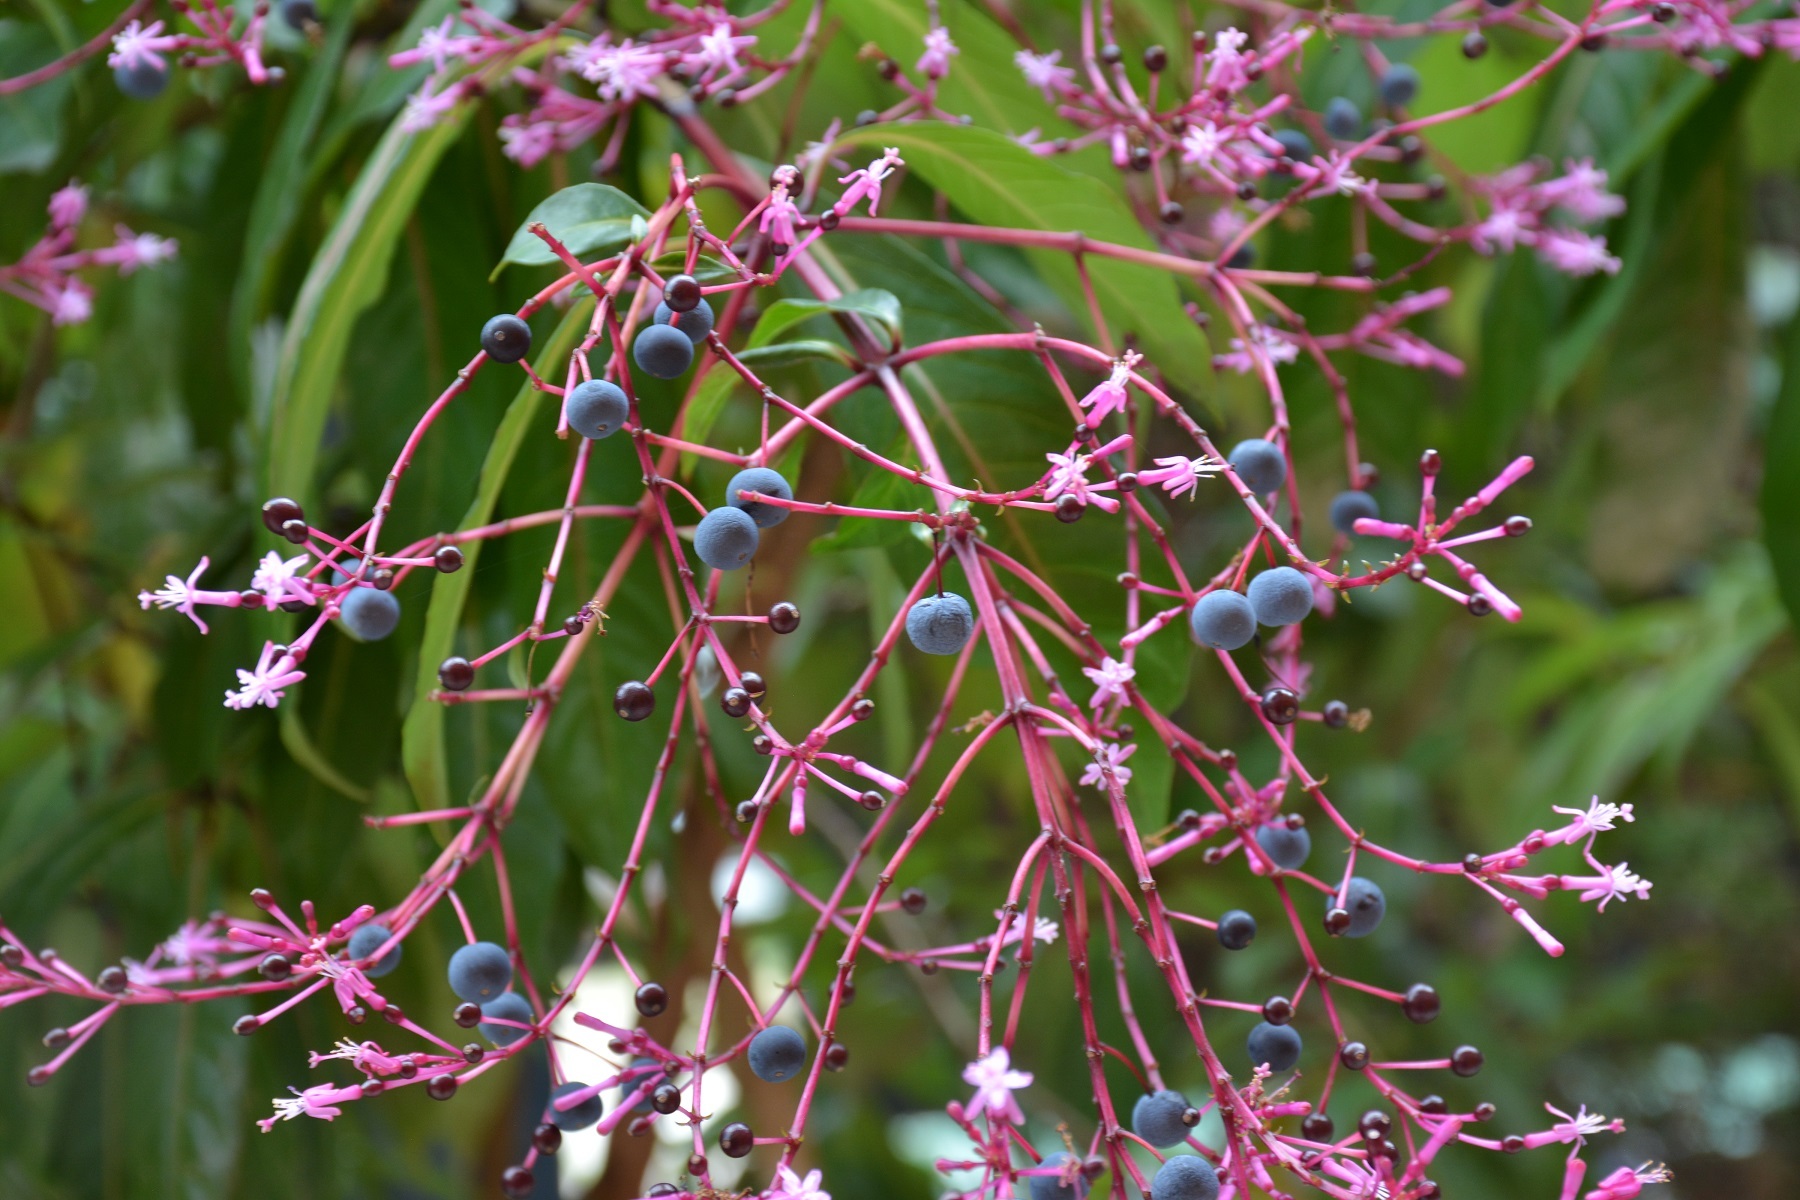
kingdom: Plantae
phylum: Tracheophyta
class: Magnoliopsida
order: Myrtales
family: Onagraceae
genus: Fuchsia
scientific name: Fuchsia paniculata
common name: Shrubby fuchsia
